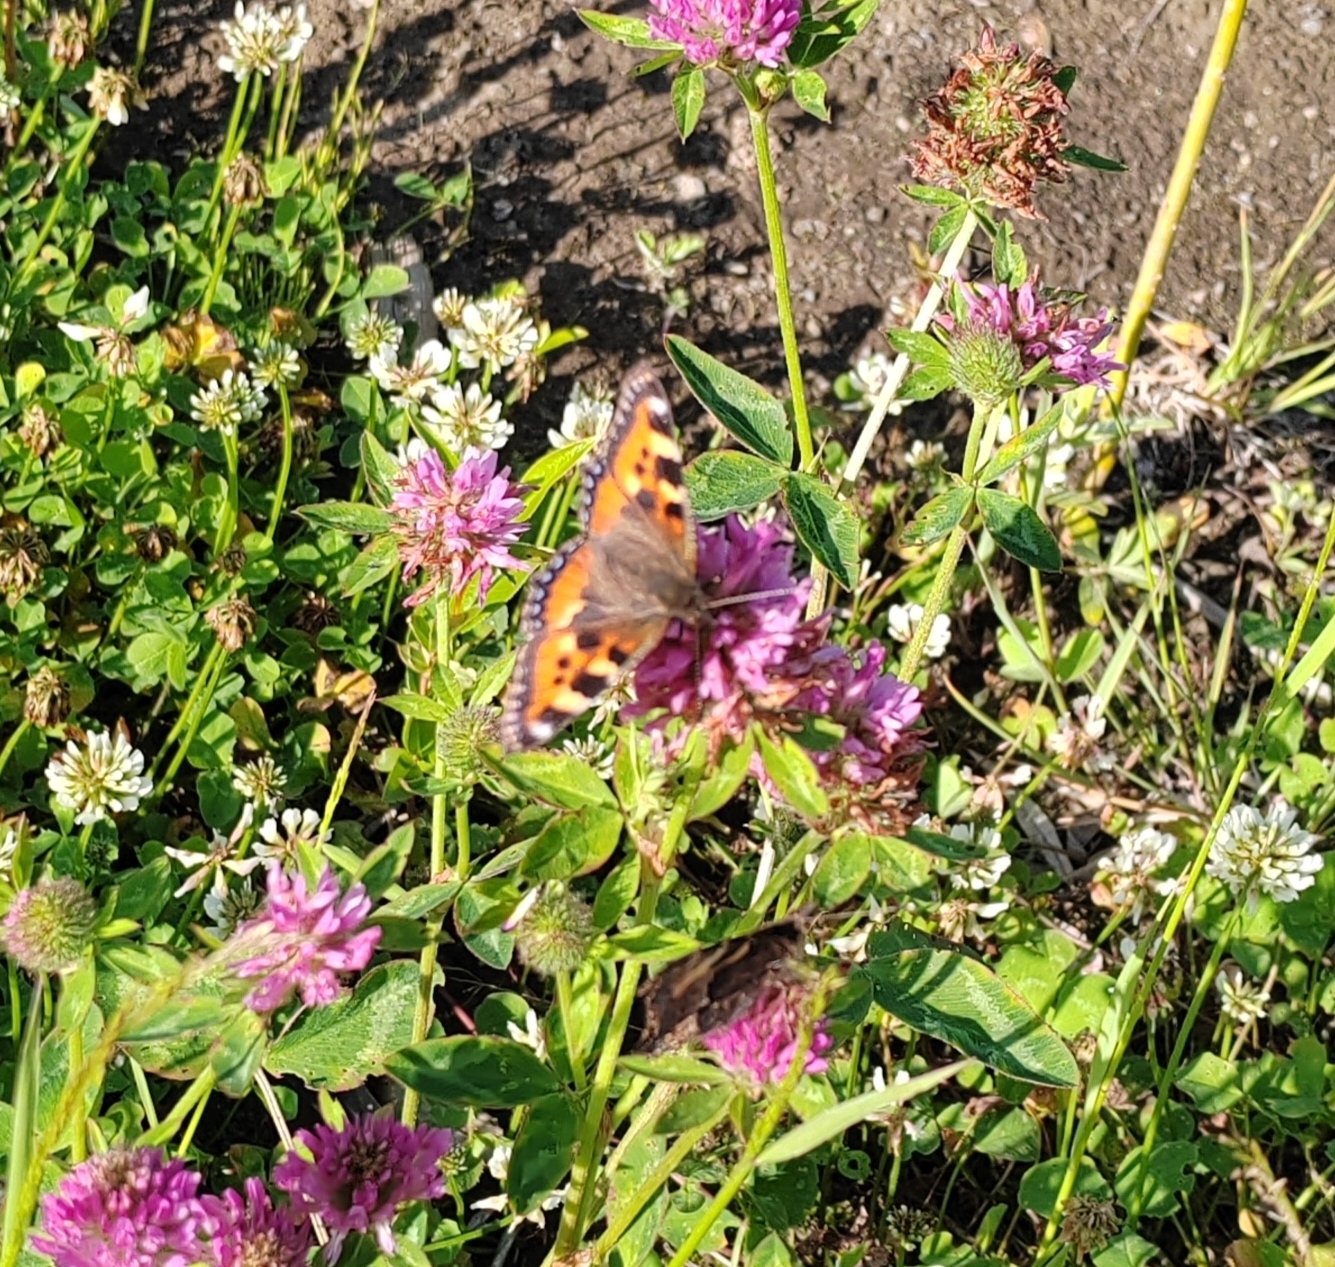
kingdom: Animalia
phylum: Arthropoda
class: Insecta
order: Lepidoptera
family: Nymphalidae
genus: Aglais
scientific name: Aglais urticae
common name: Small tortoiseshell
